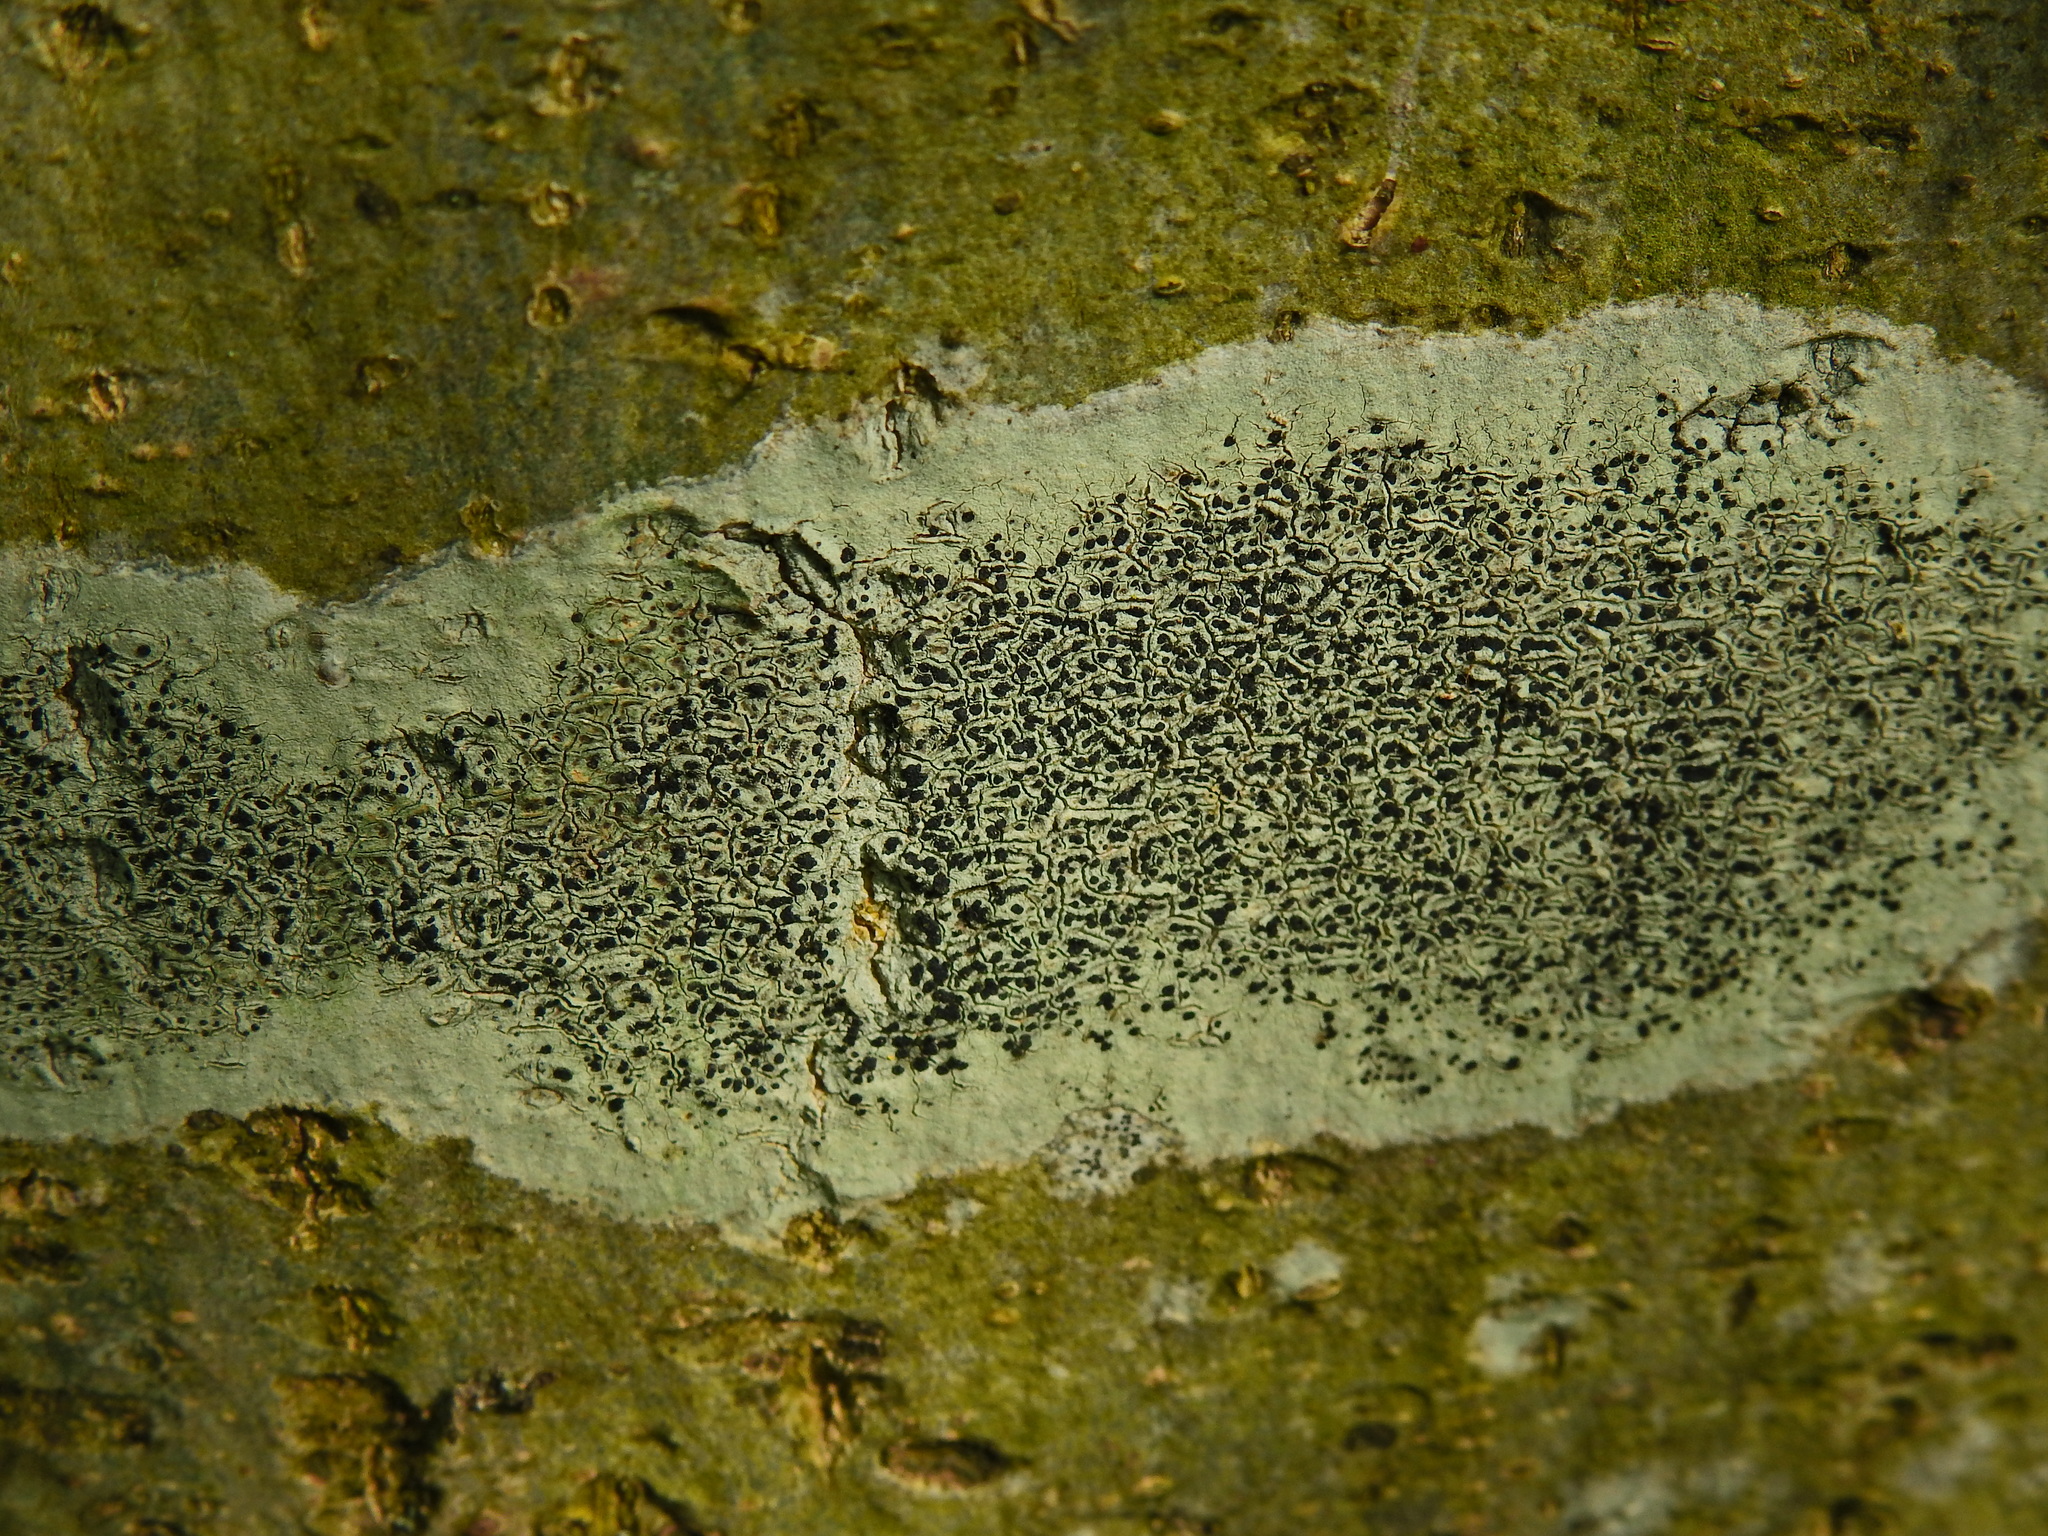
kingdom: Fungi
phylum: Ascomycota
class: Lecanoromycetes
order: Lecanorales
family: Lecanoraceae
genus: Lecidella
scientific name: Lecidella elaeochroma
